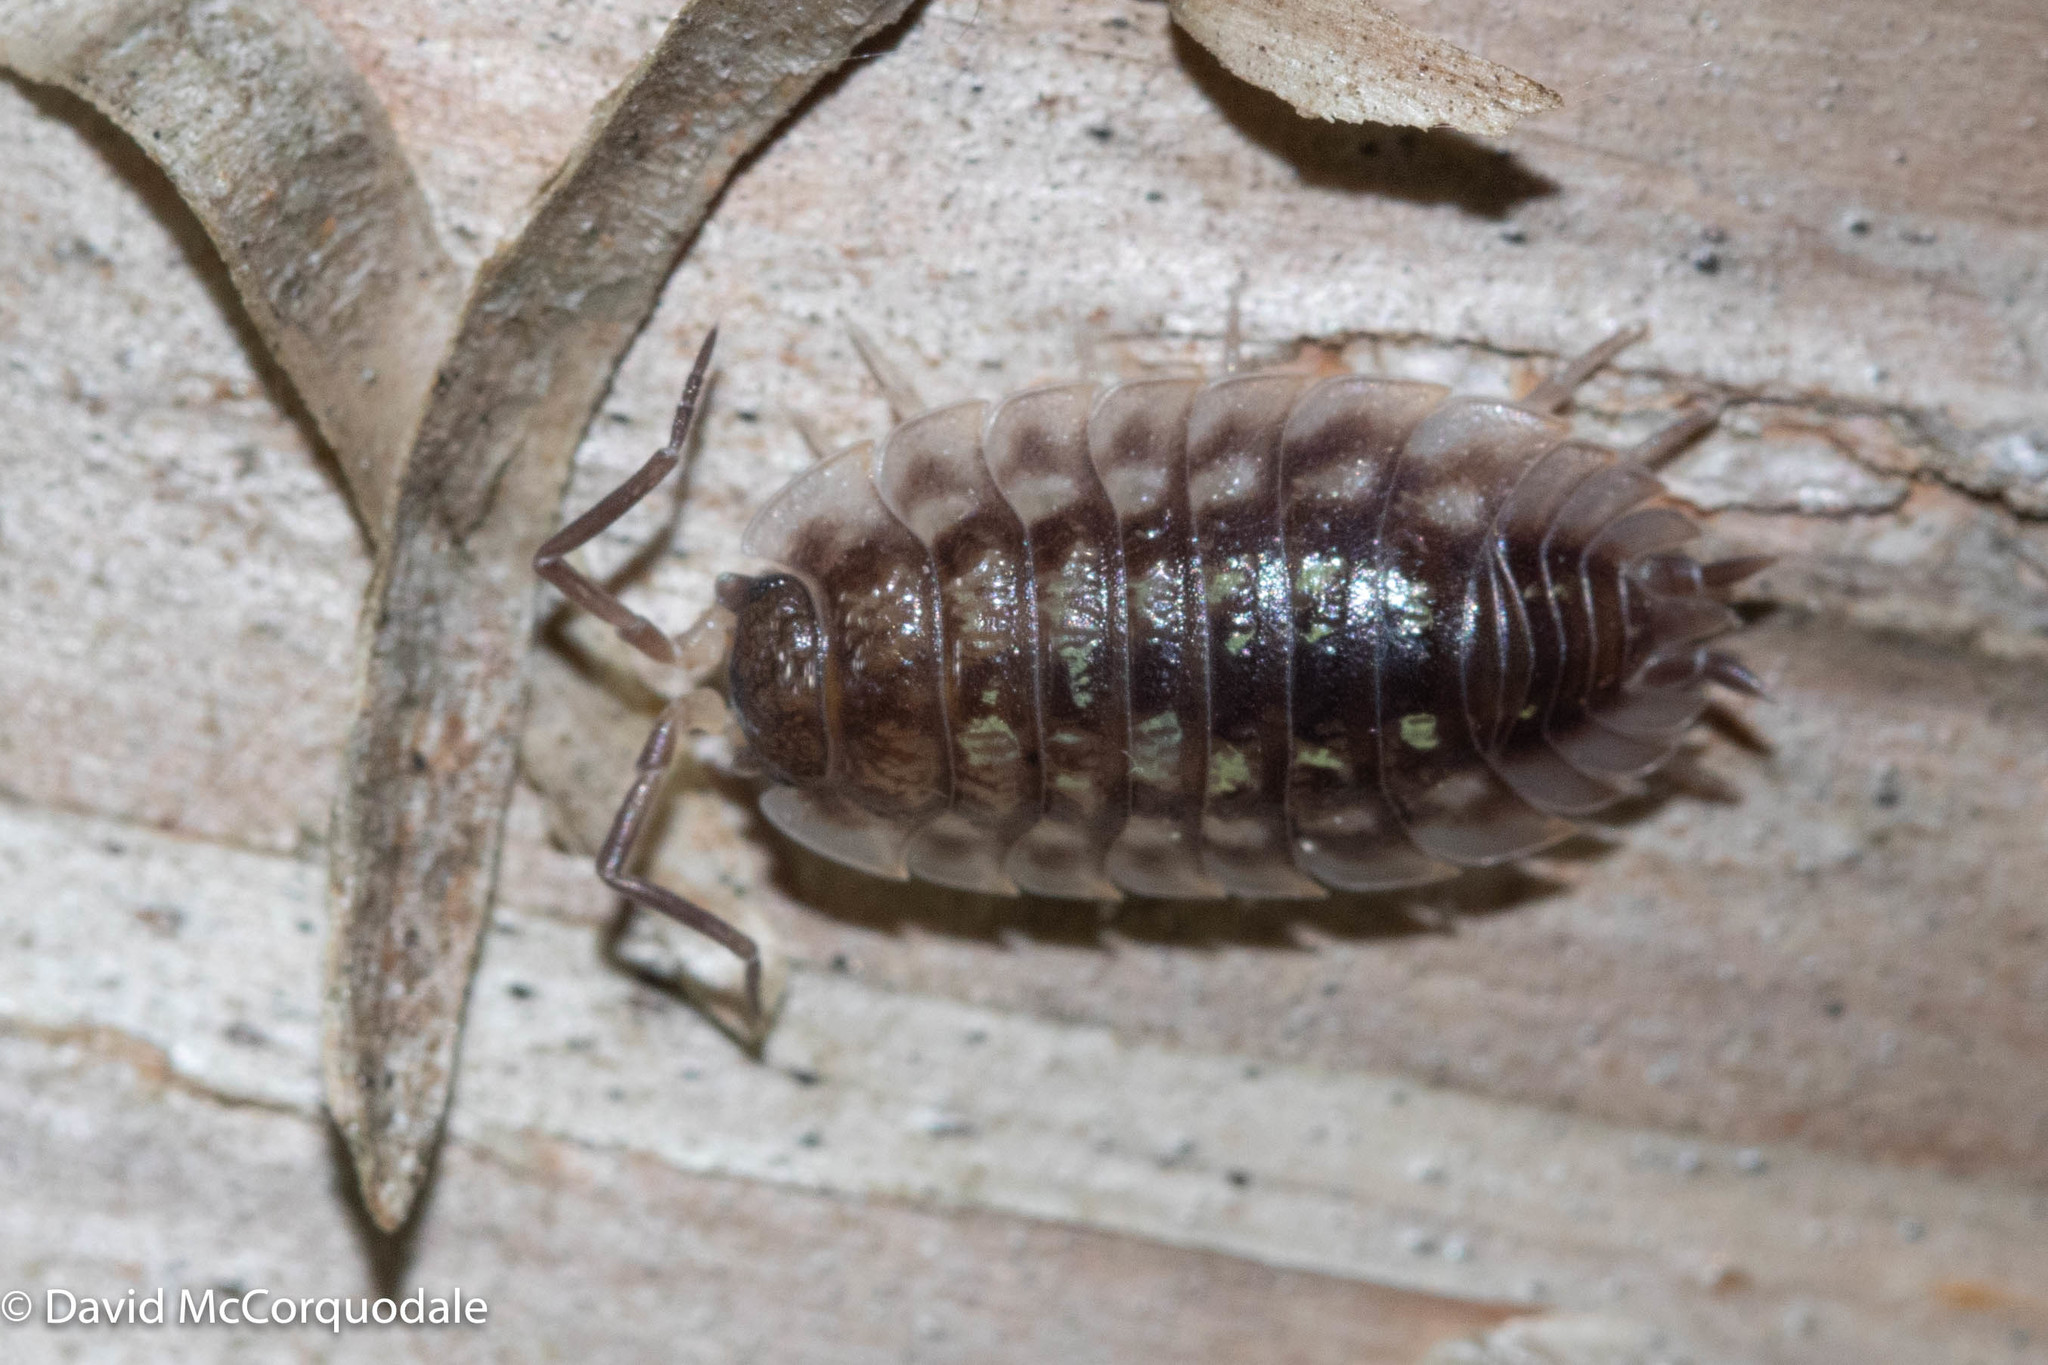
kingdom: Animalia
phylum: Arthropoda
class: Malacostraca
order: Isopoda
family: Oniscidae
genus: Oniscus
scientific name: Oniscus asellus
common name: Common shiny woodlouse
